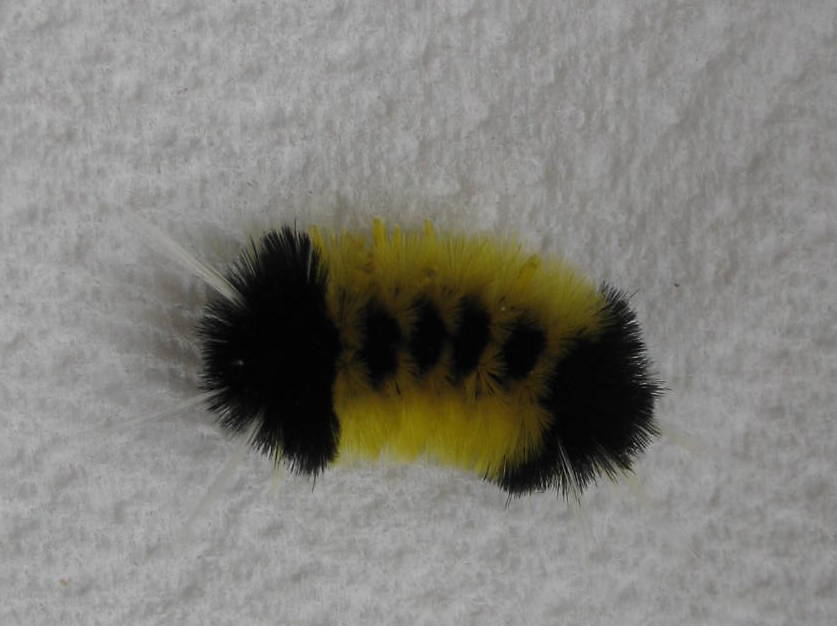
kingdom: Animalia
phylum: Arthropoda
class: Insecta
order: Lepidoptera
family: Erebidae
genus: Lophocampa
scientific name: Lophocampa maculata
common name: Spotted tussock moth
